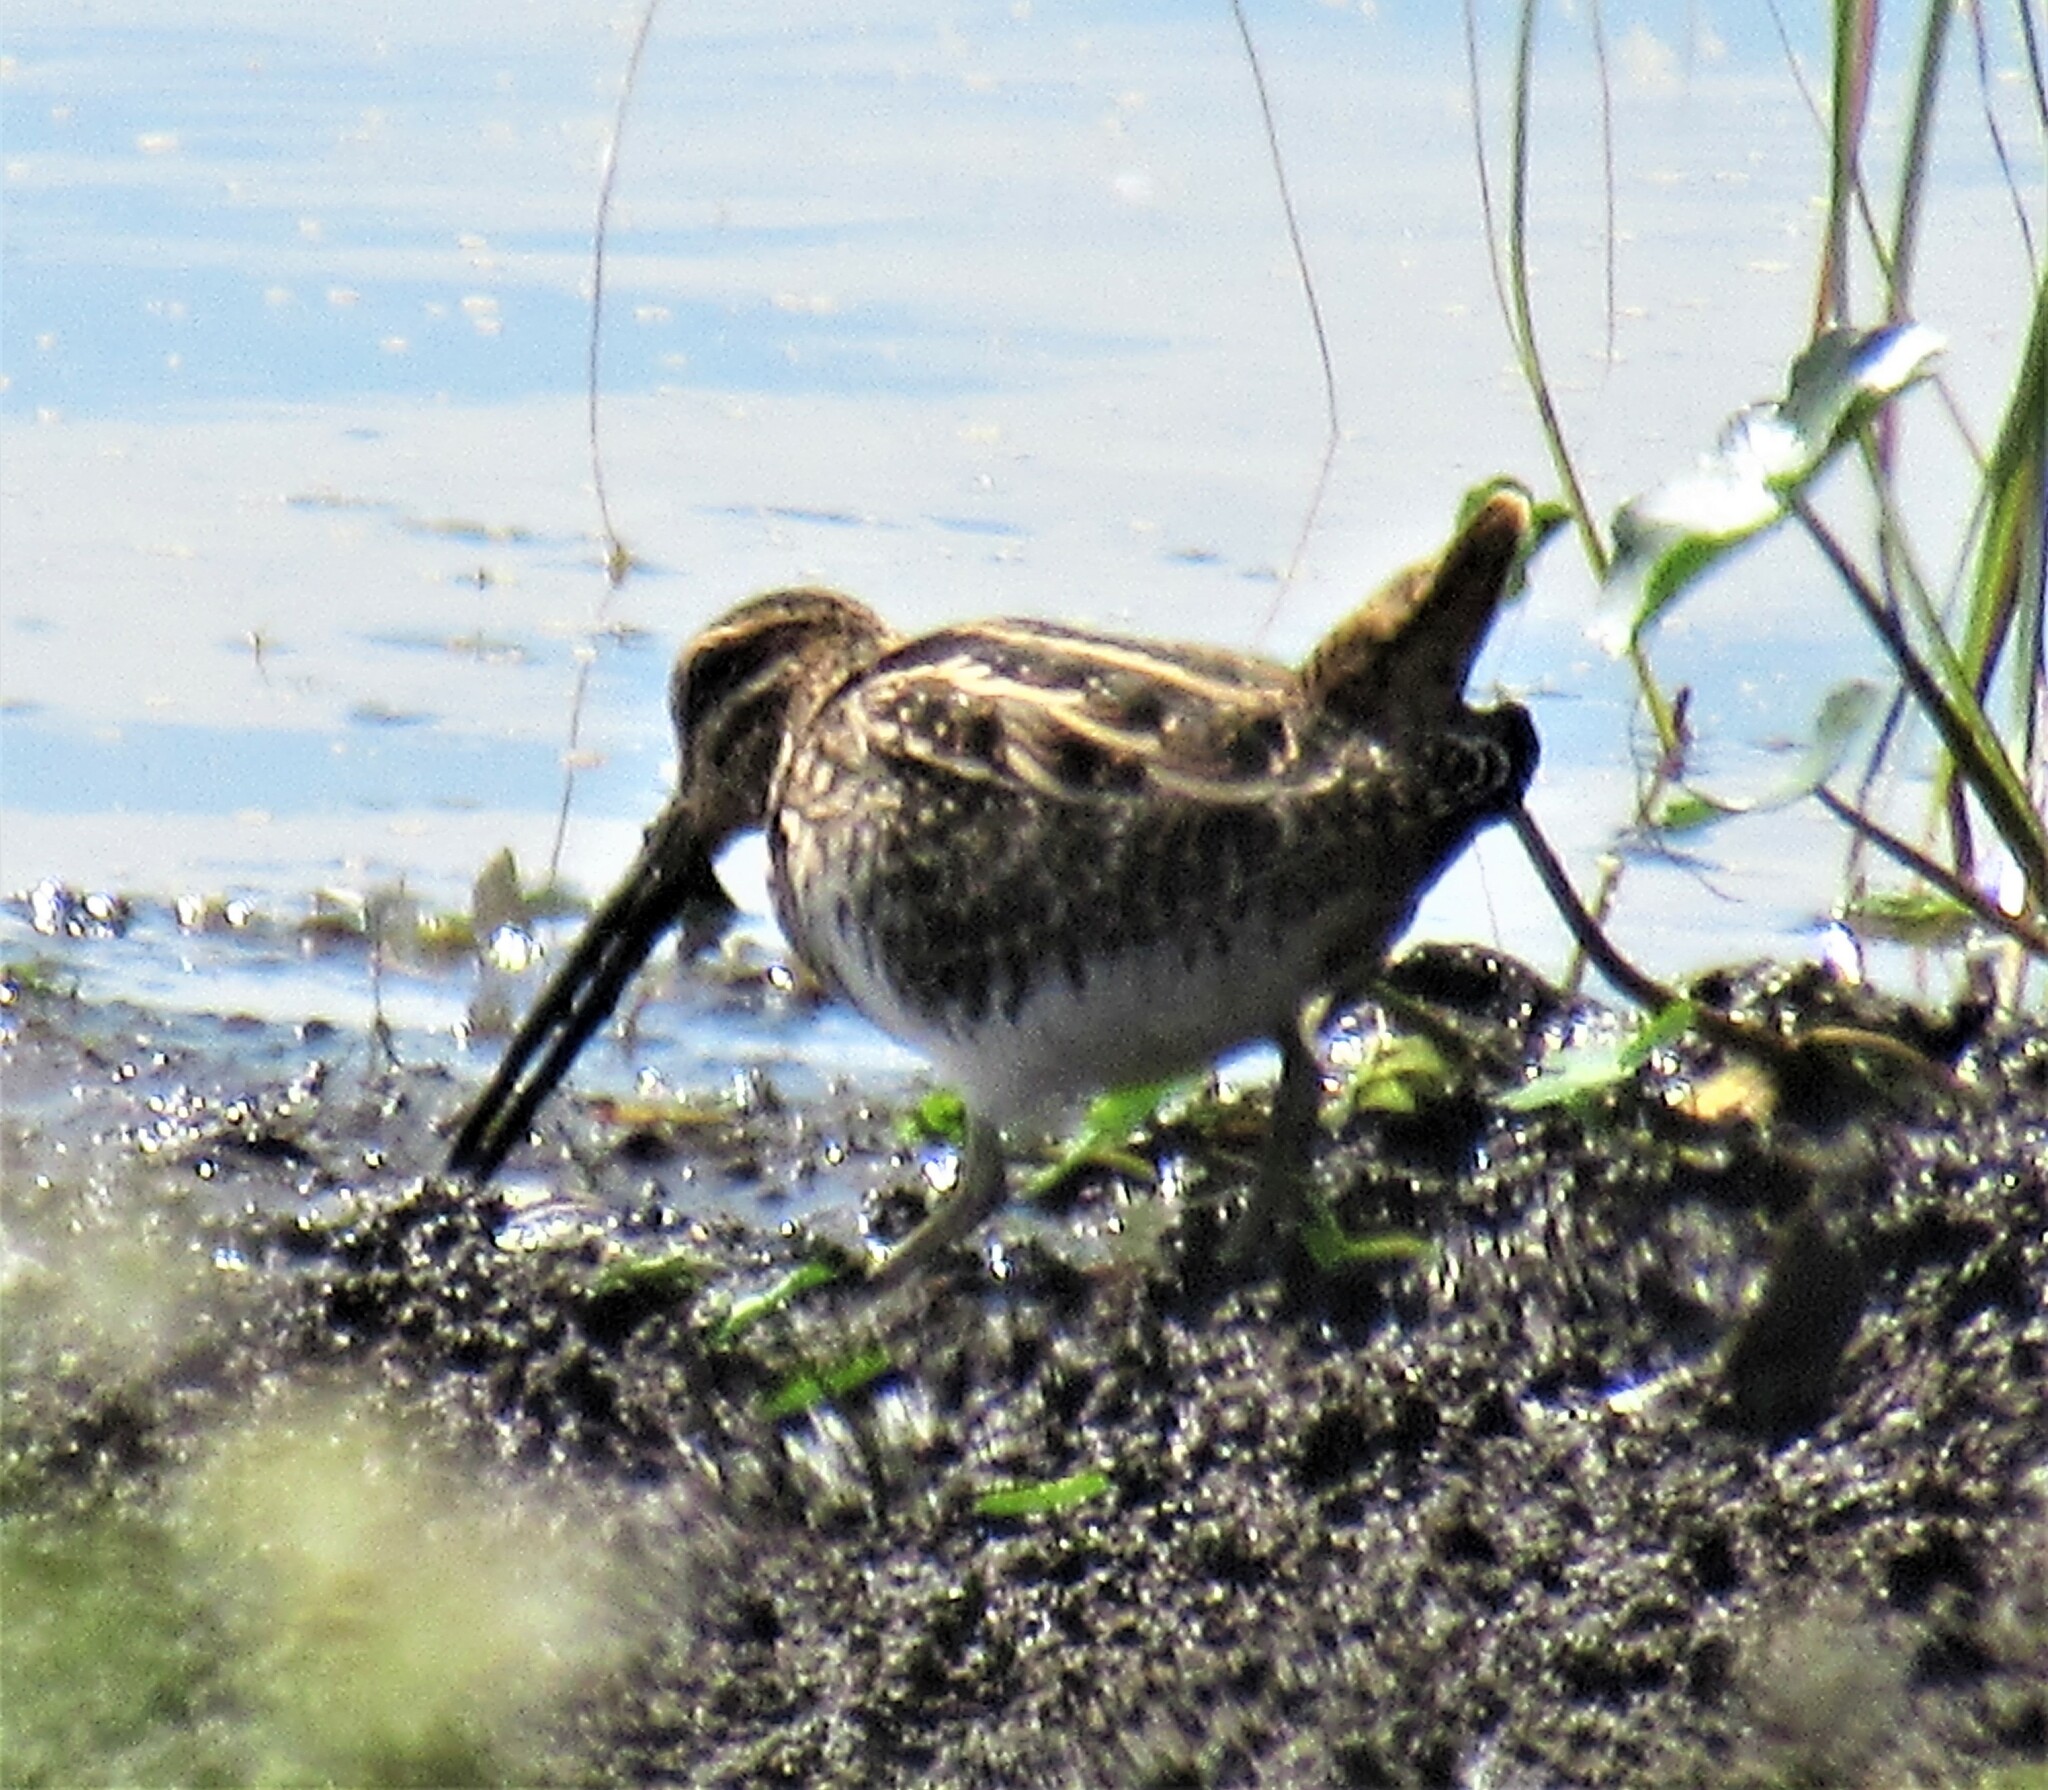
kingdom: Animalia
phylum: Chordata
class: Aves
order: Charadriiformes
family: Scolopacidae
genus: Gallinago
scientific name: Gallinago delicata
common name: Wilson's snipe
